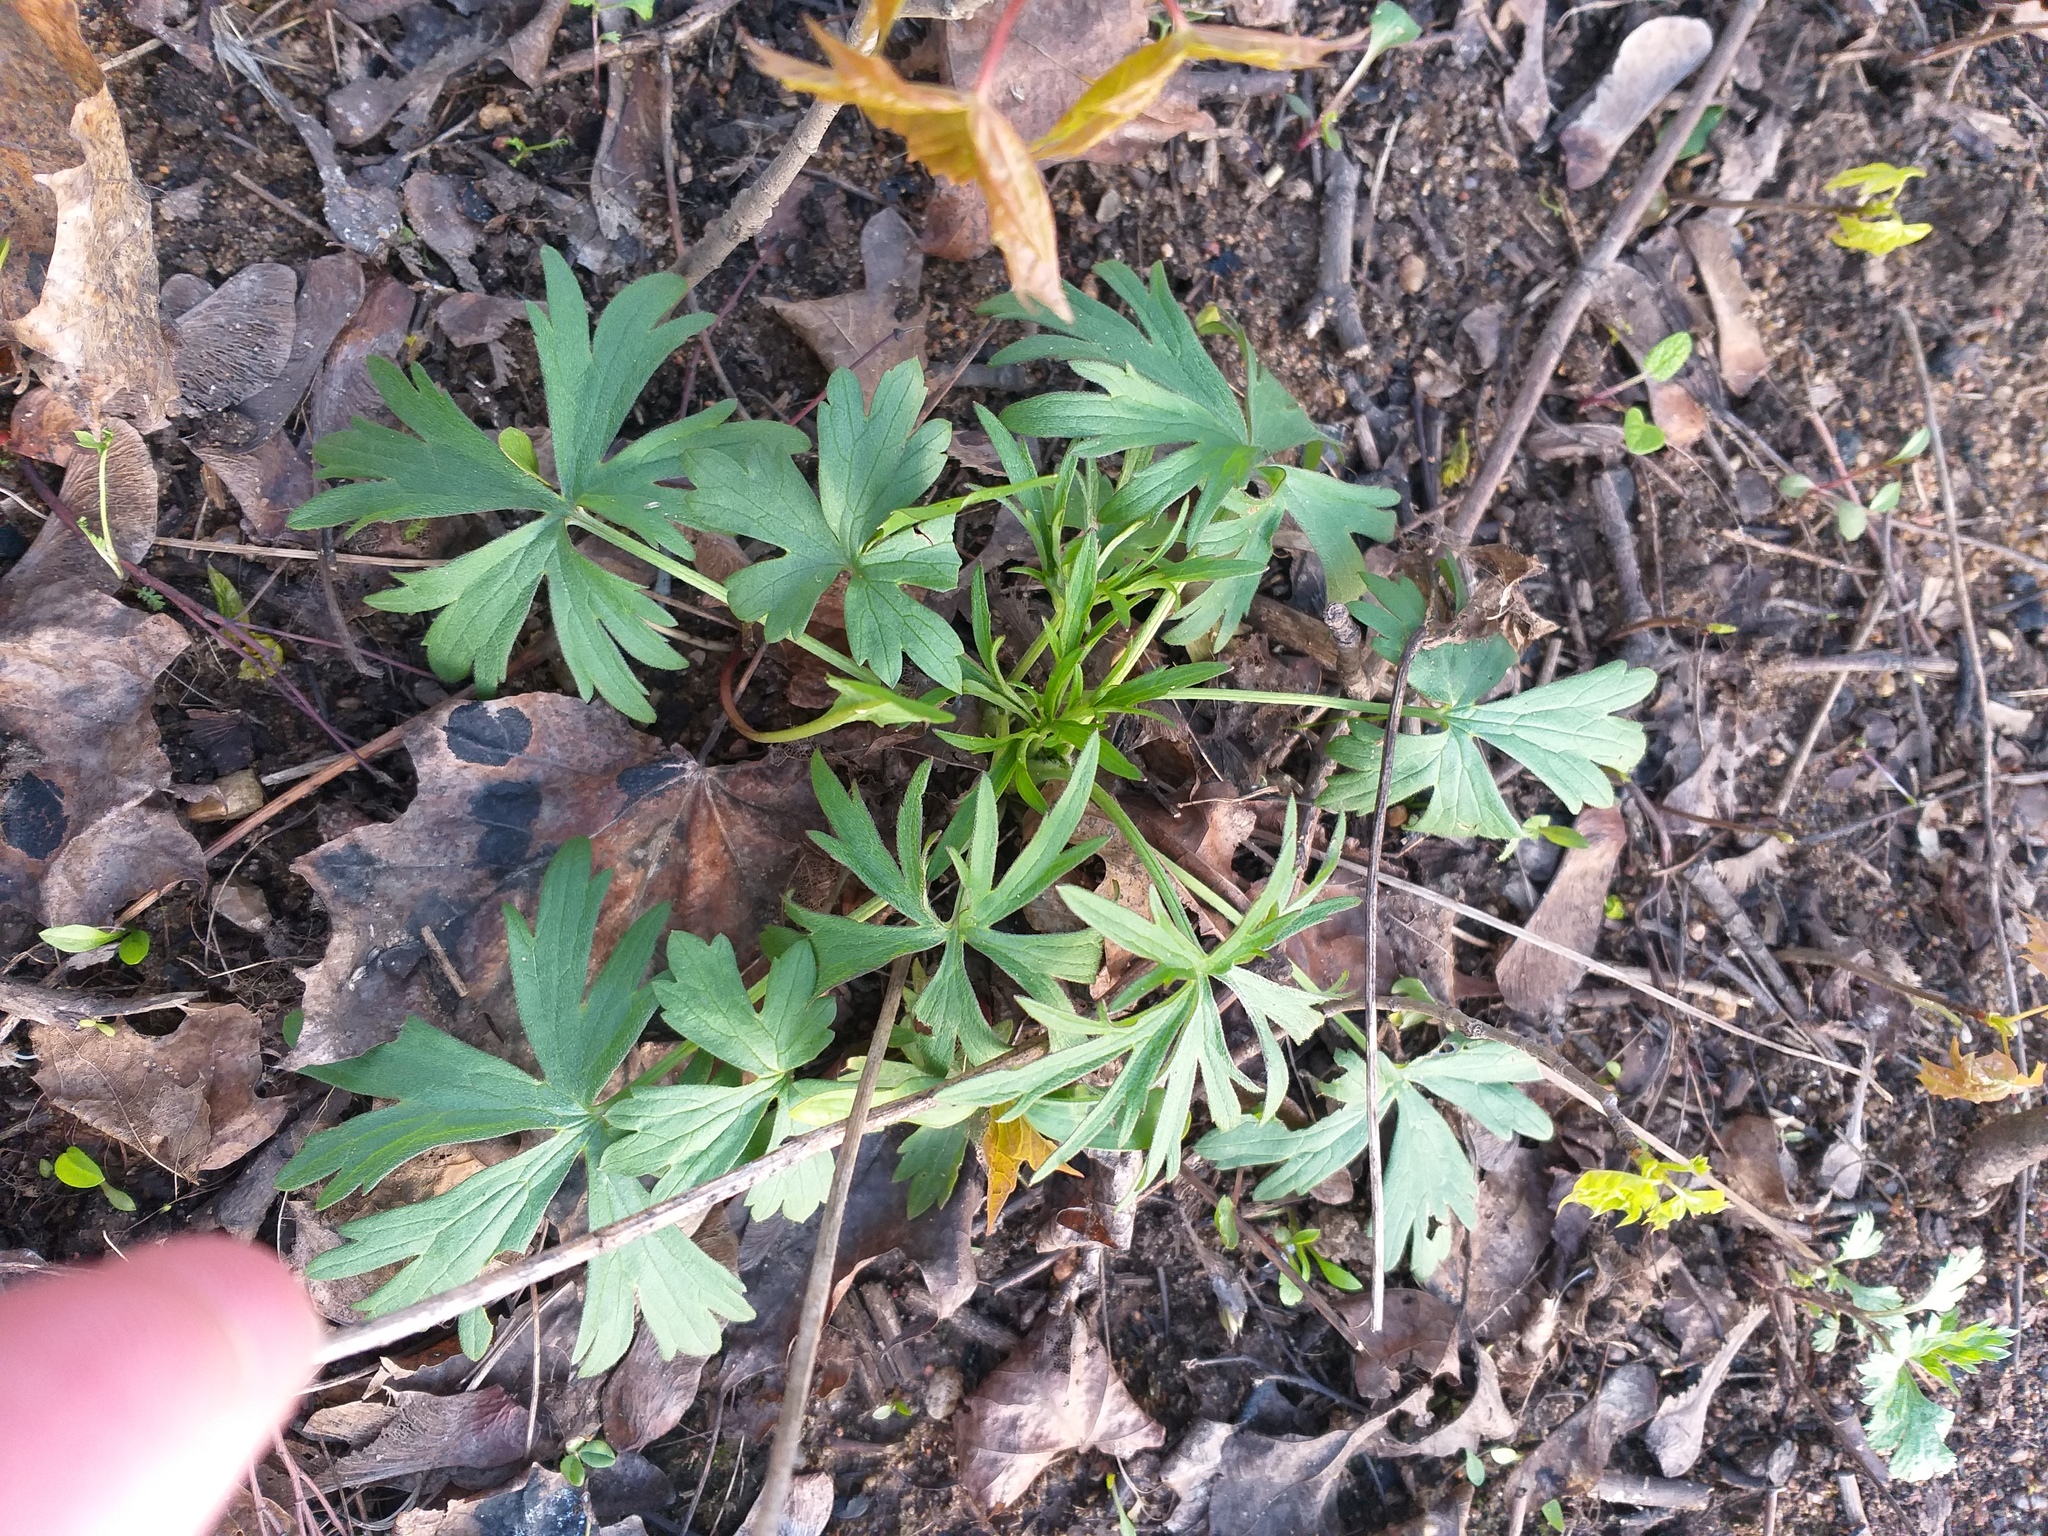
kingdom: Plantae
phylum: Tracheophyta
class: Magnoliopsida
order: Ranunculales
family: Ranunculaceae
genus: Ranunculus
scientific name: Ranunculus acris
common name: Meadow buttercup
